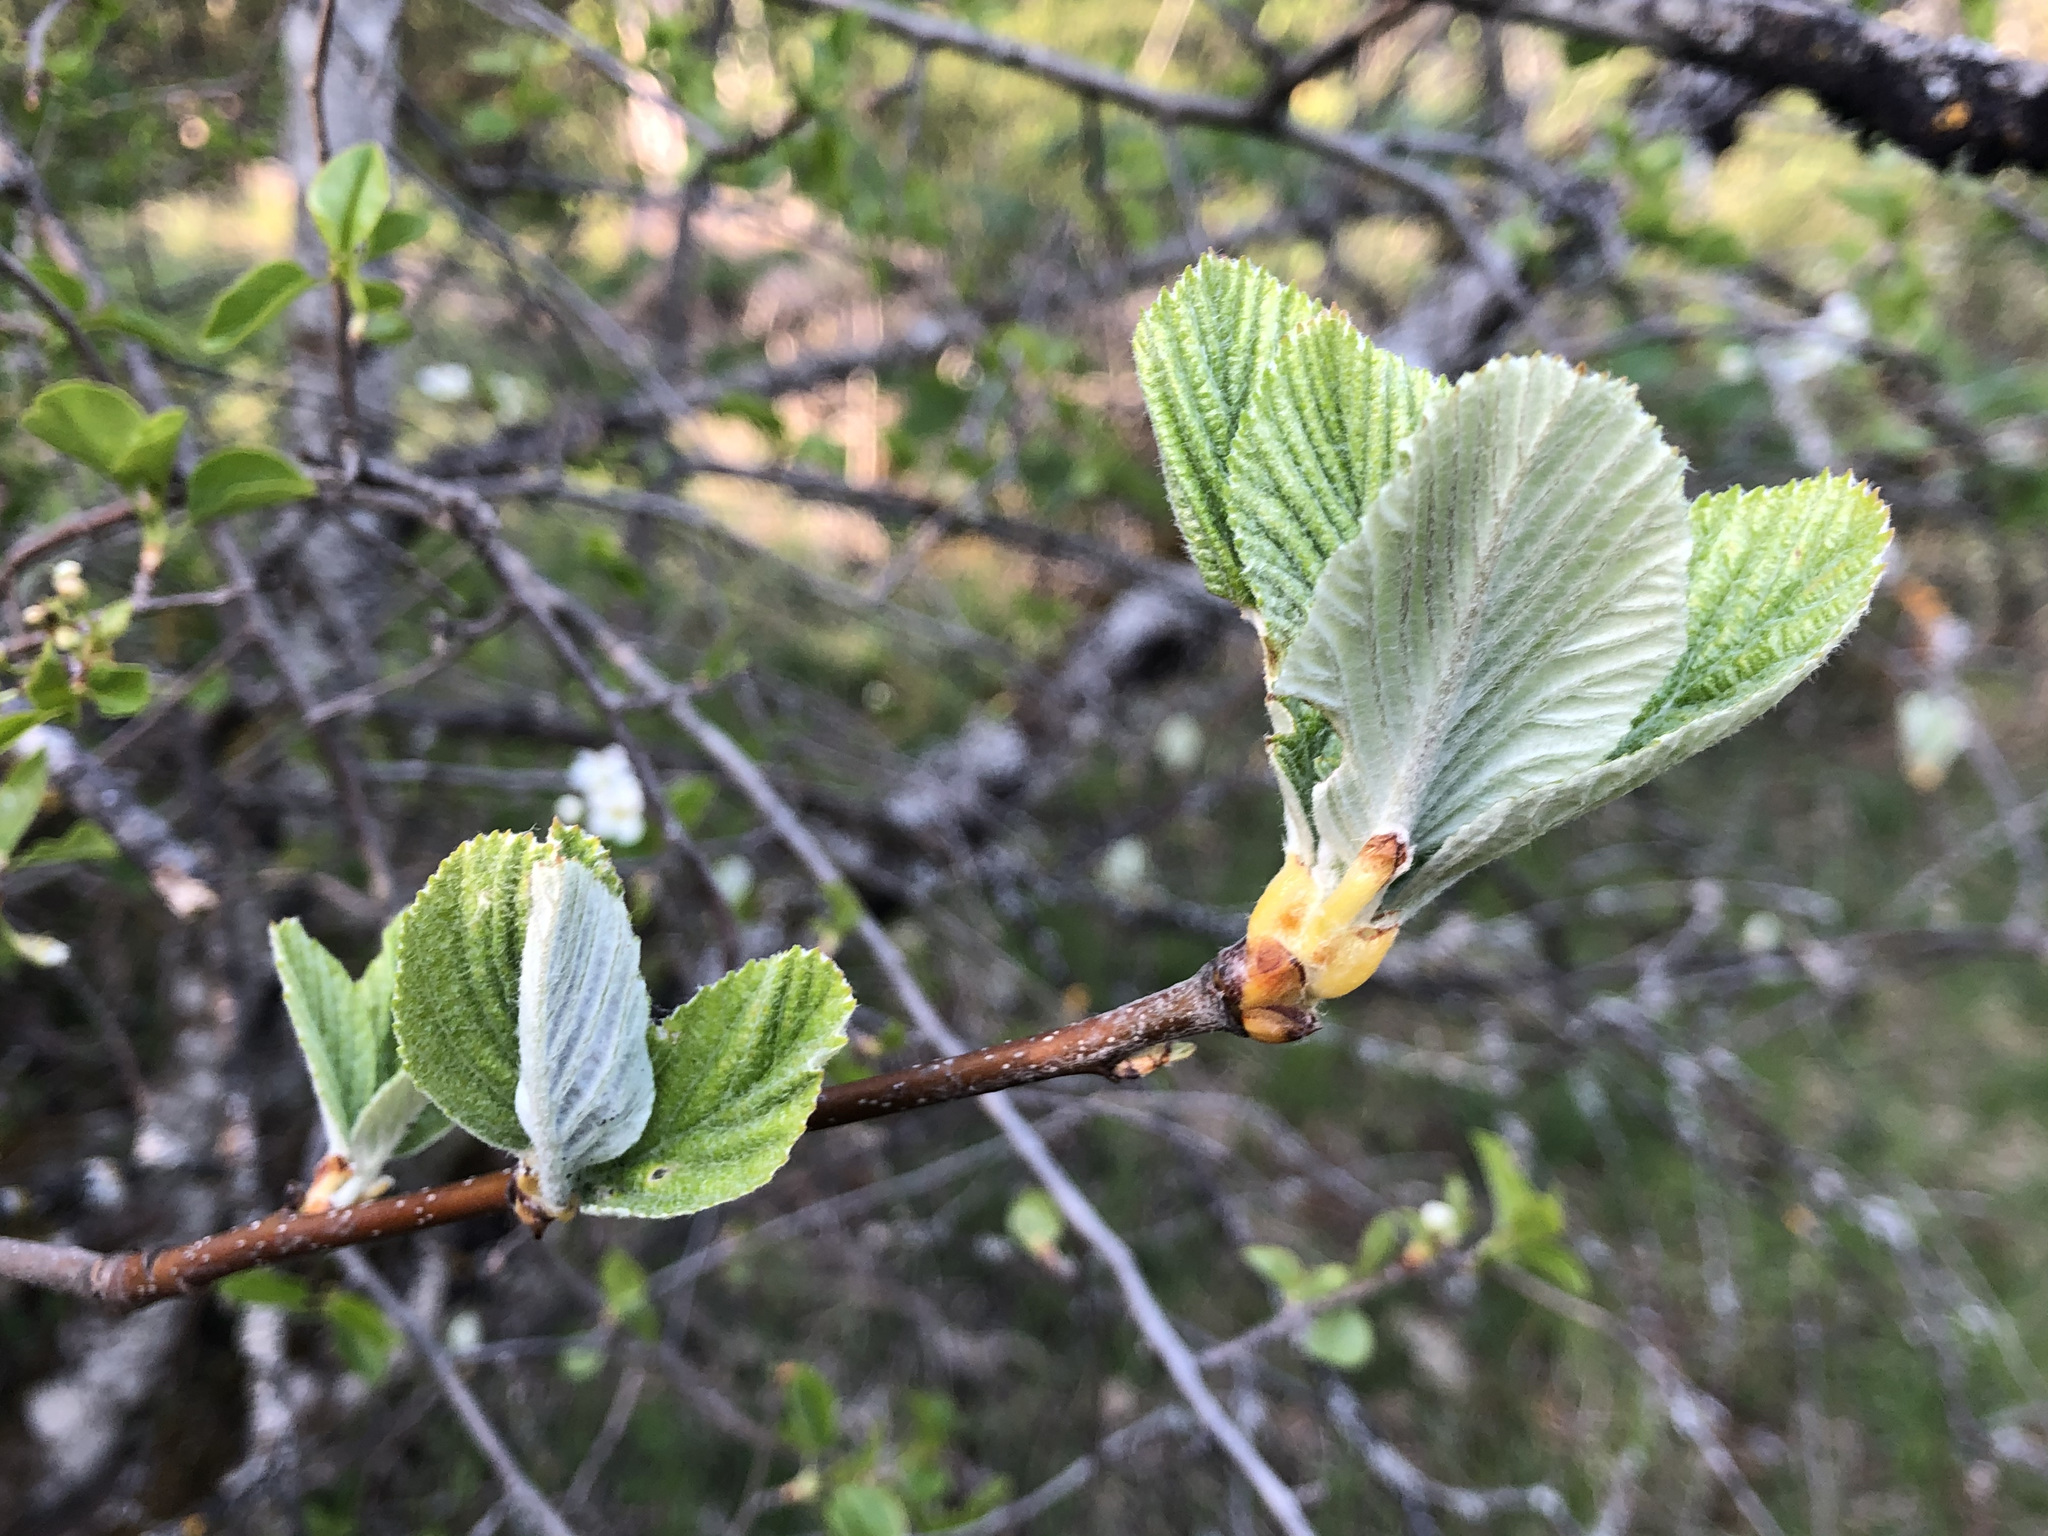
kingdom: Plantae
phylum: Tracheophyta
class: Magnoliopsida
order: Rosales
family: Rosaceae
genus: Aria
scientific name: Aria edulis
